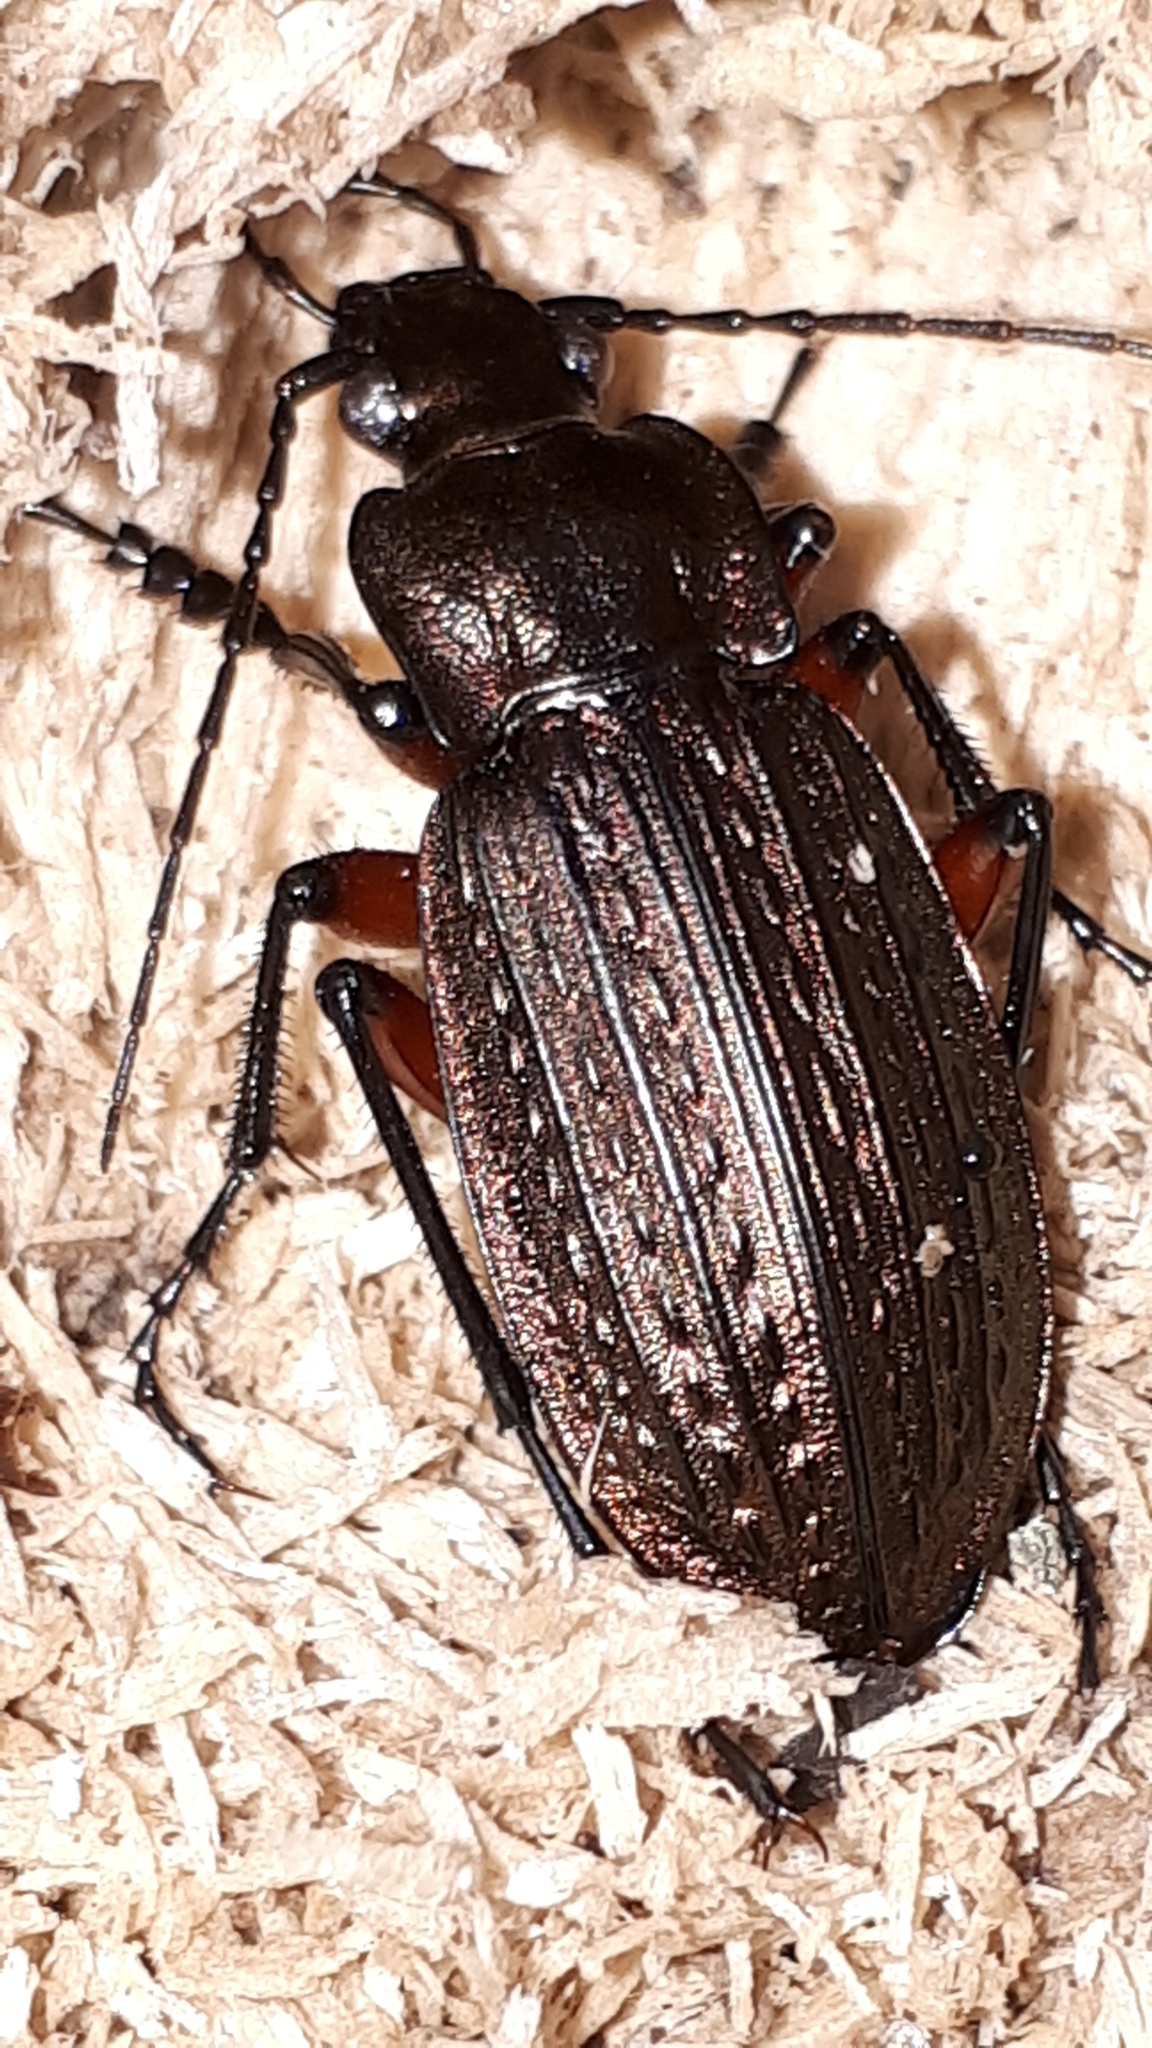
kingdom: Animalia
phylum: Arthropoda
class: Insecta
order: Coleoptera
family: Carabidae
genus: Carabus
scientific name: Carabus granulatus
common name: Granulate ground beetle
